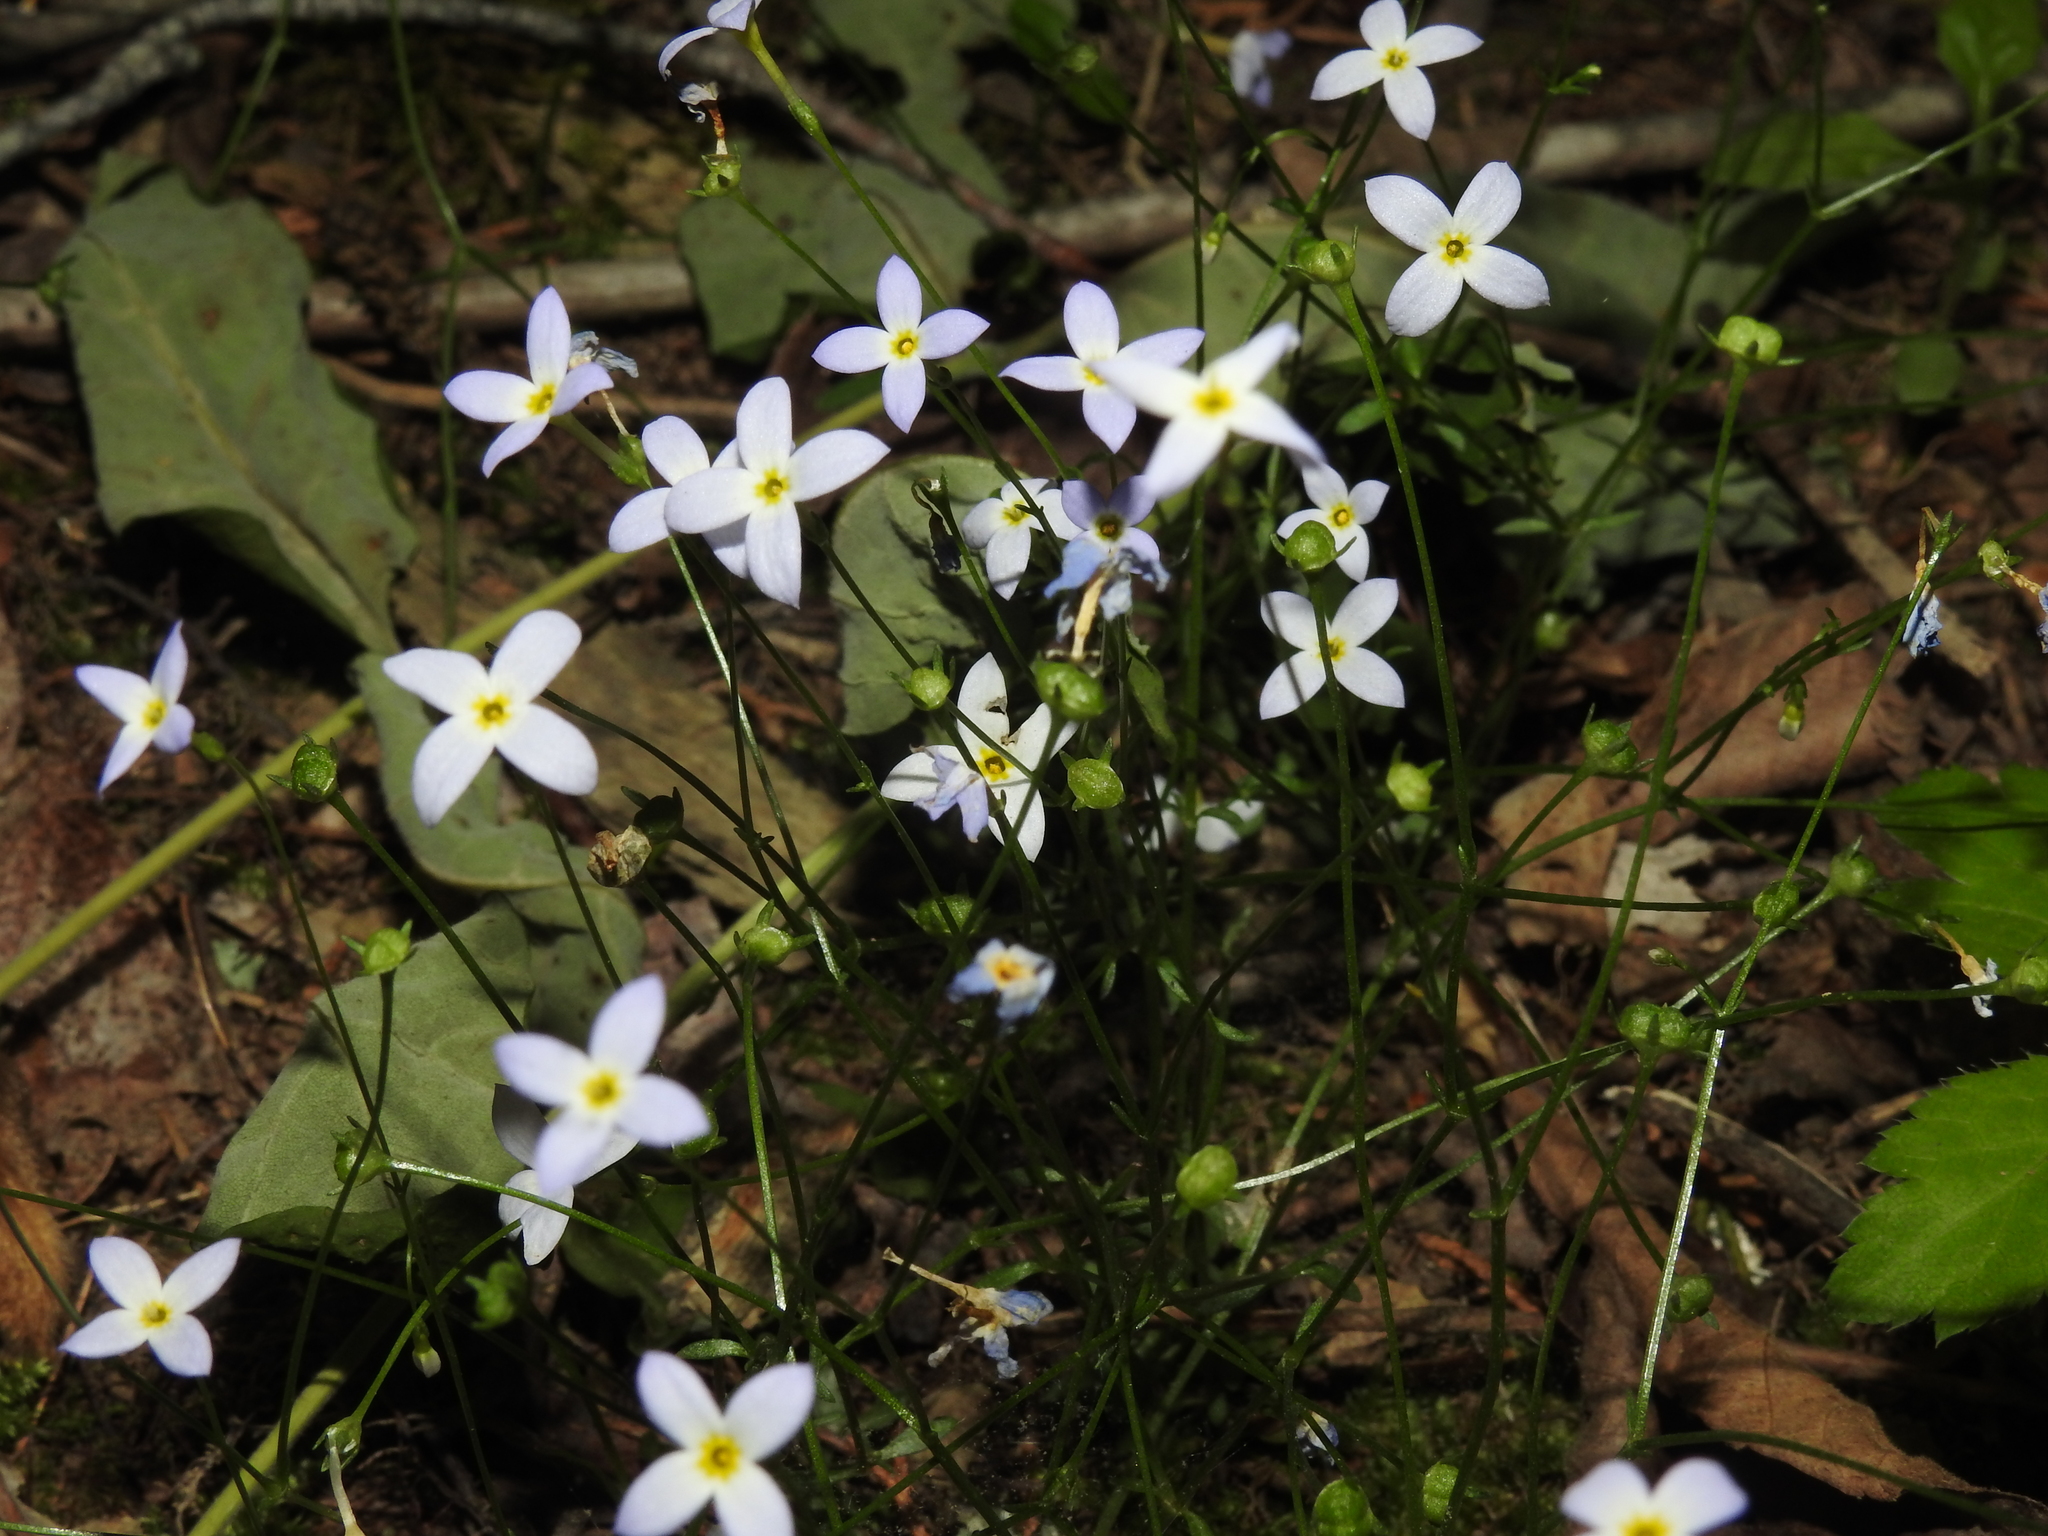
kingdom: Plantae
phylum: Tracheophyta
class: Magnoliopsida
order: Gentianales
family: Rubiaceae
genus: Houstonia
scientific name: Houstonia caerulea
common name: Bluets
